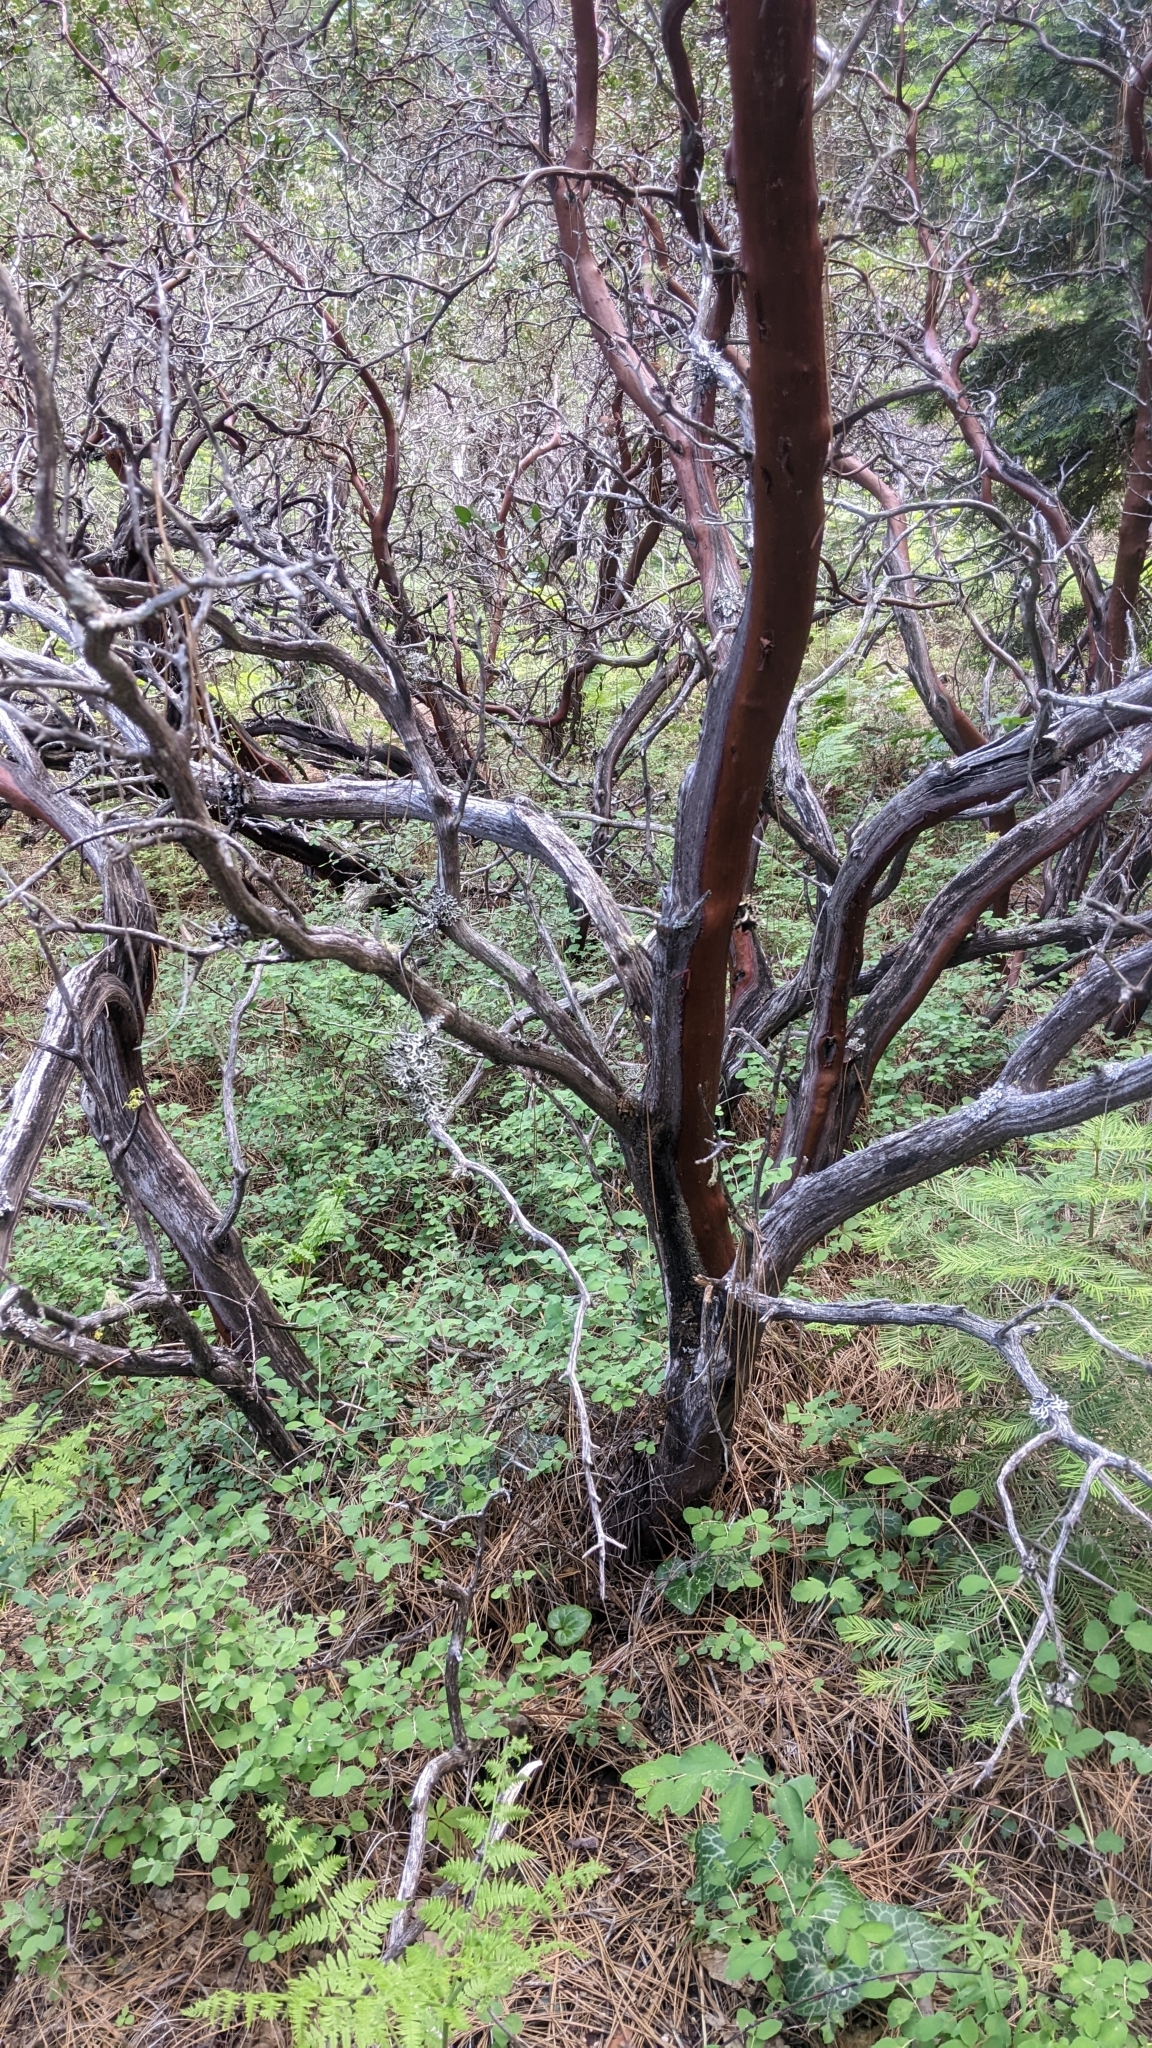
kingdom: Plantae
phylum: Tracheophyta
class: Magnoliopsida
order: Ericales
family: Ericaceae
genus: Arctostaphylos
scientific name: Arctostaphylos patula
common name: Green-leaf manzanita
